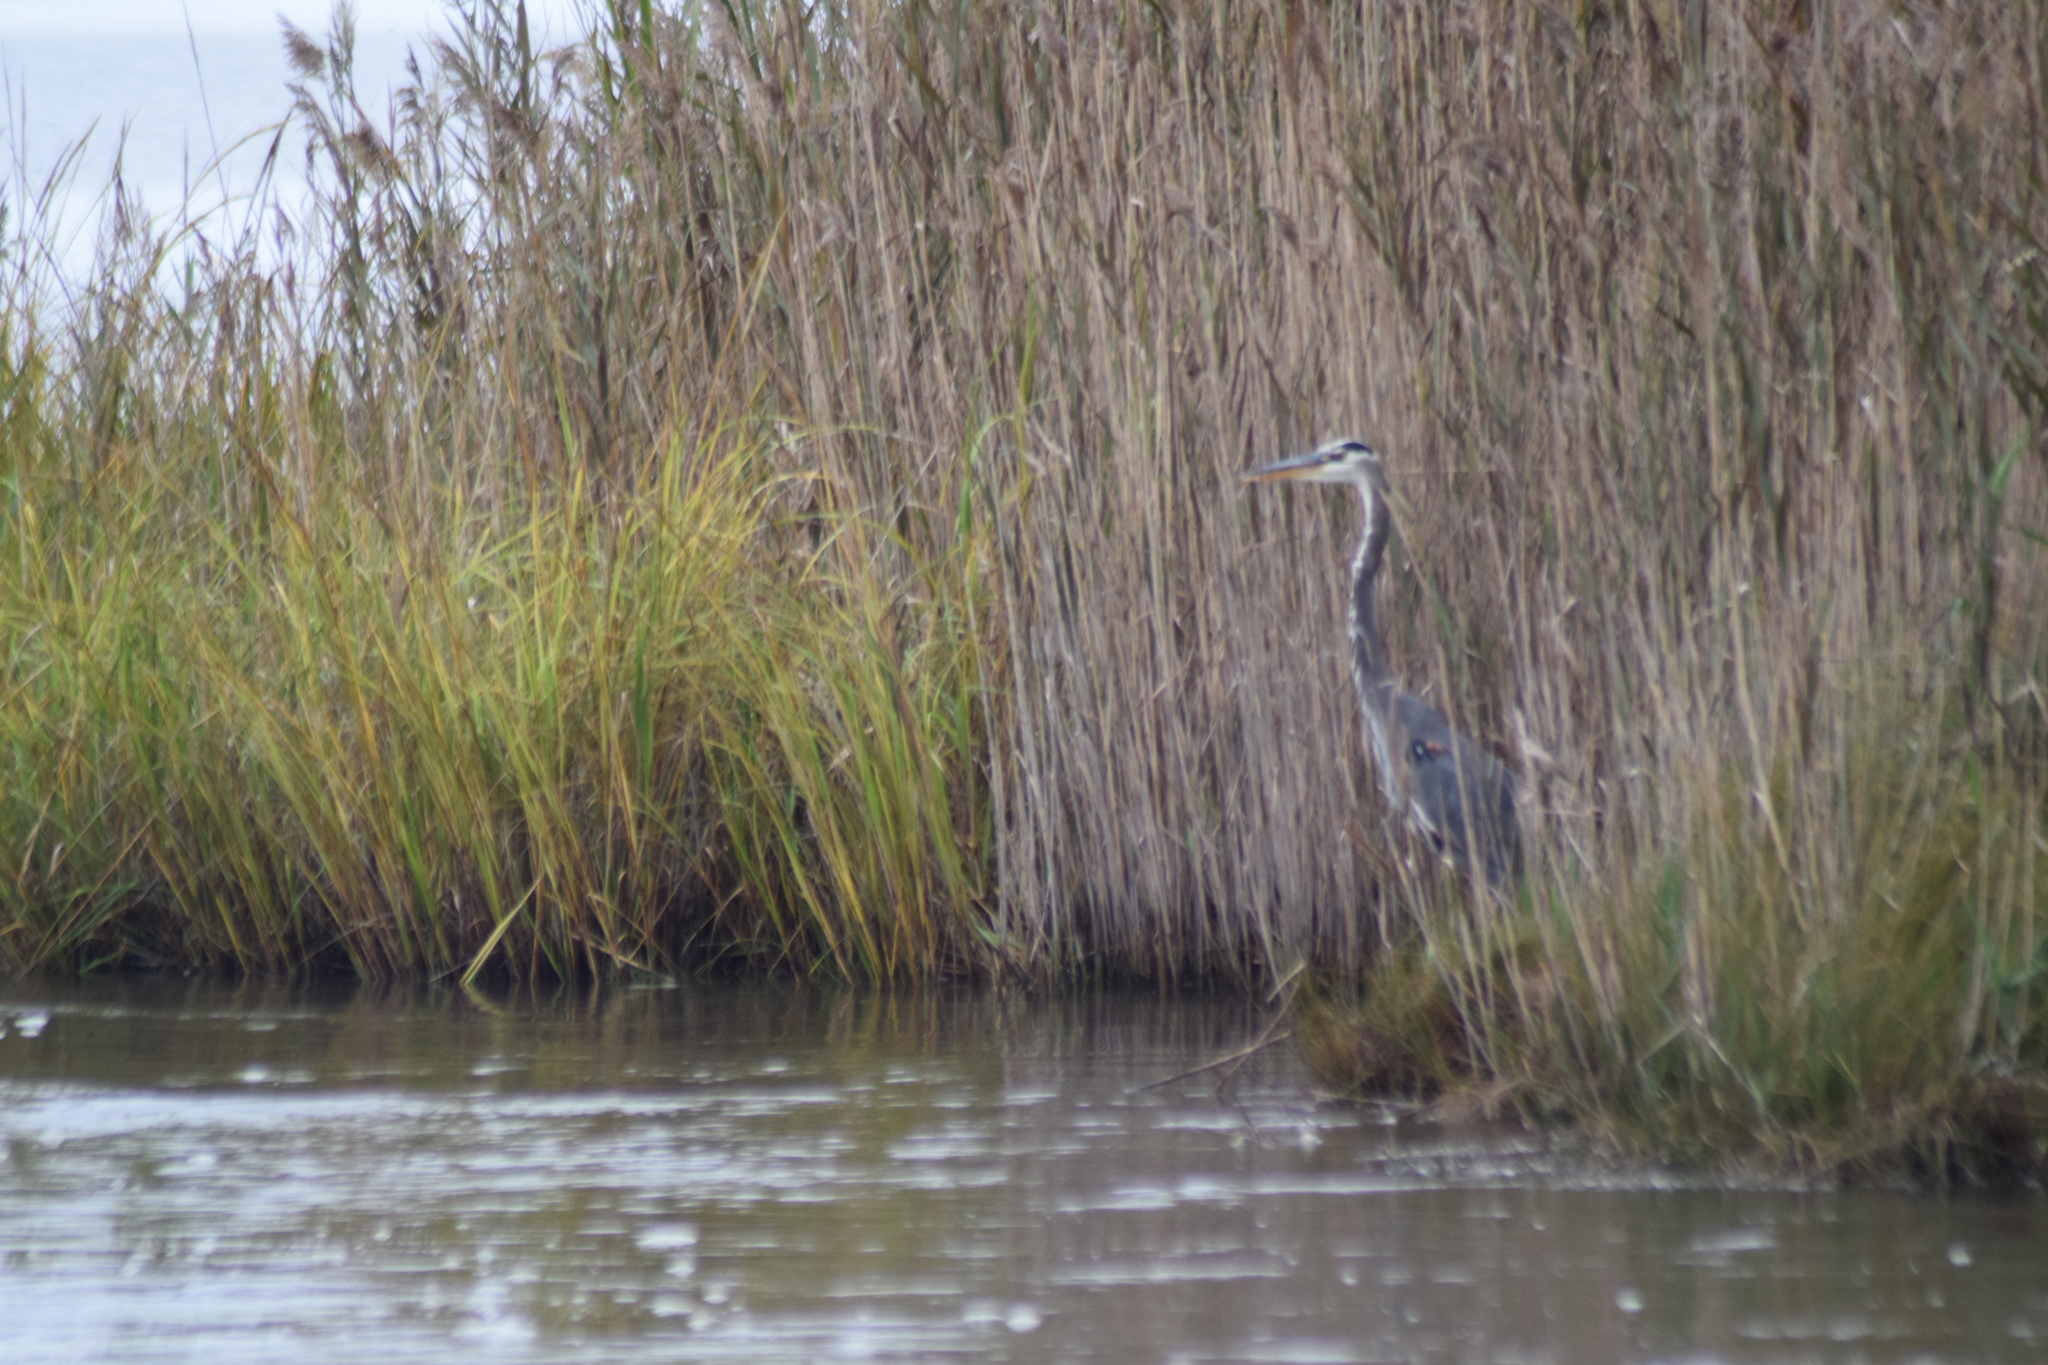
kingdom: Animalia
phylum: Chordata
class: Aves
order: Pelecaniformes
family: Ardeidae
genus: Ardea
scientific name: Ardea herodias
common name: Great blue heron
